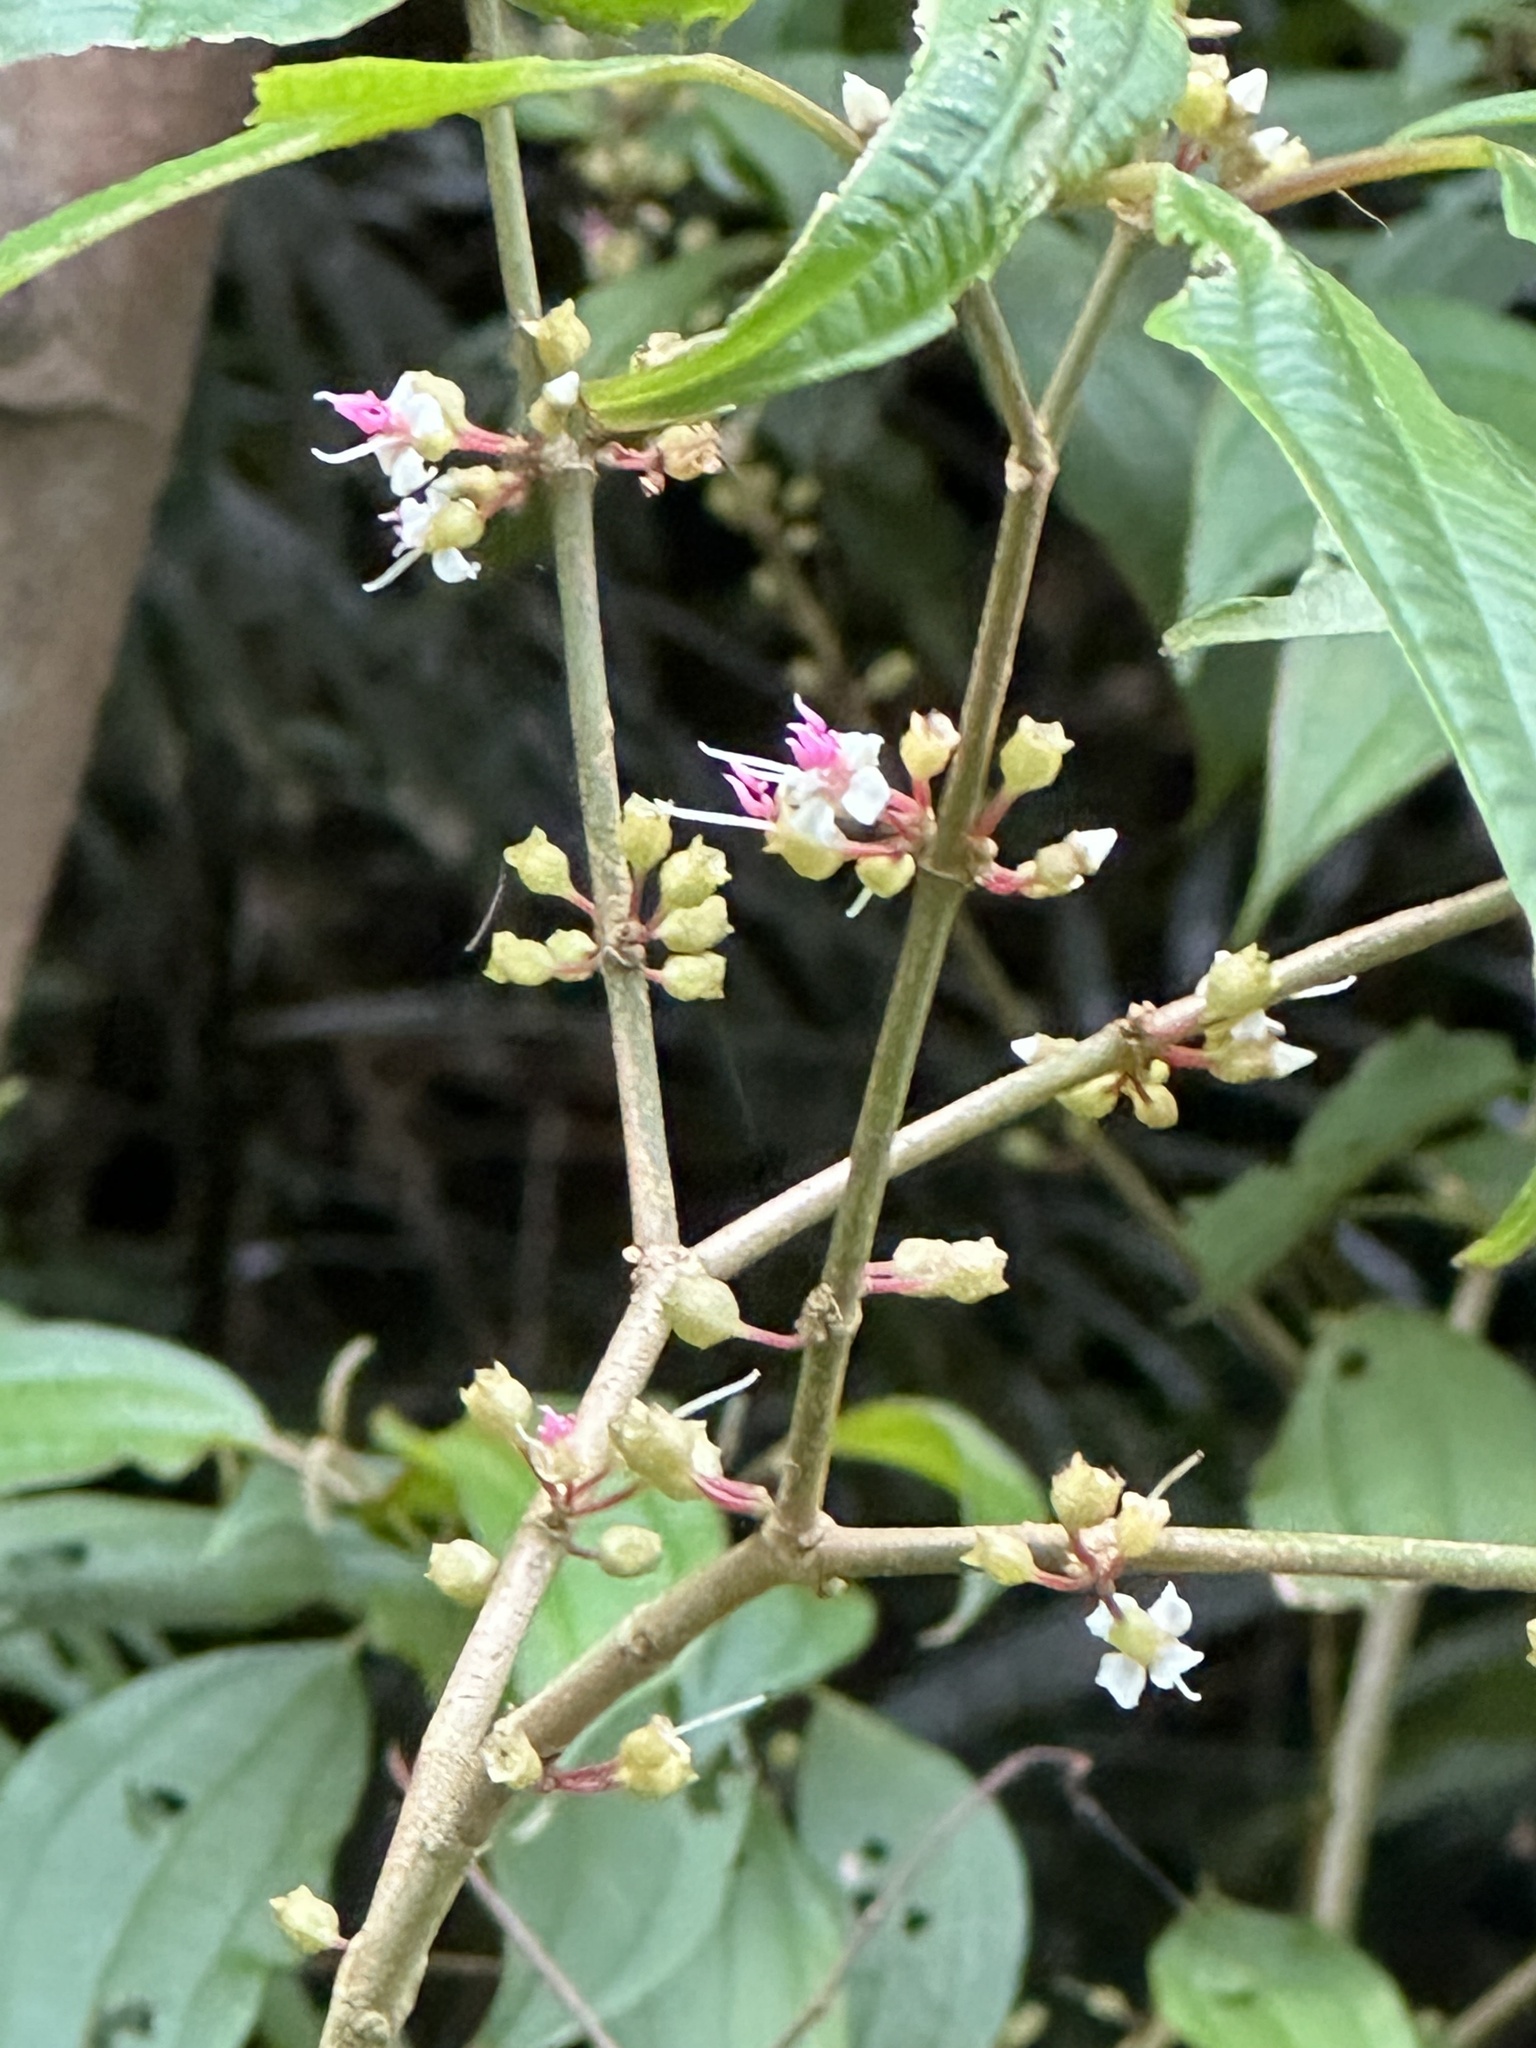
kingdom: Plantae
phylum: Tracheophyta
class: Magnoliopsida
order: Myrtales
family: Melastomataceae
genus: Blastus
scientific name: Blastus cochinchinensis
